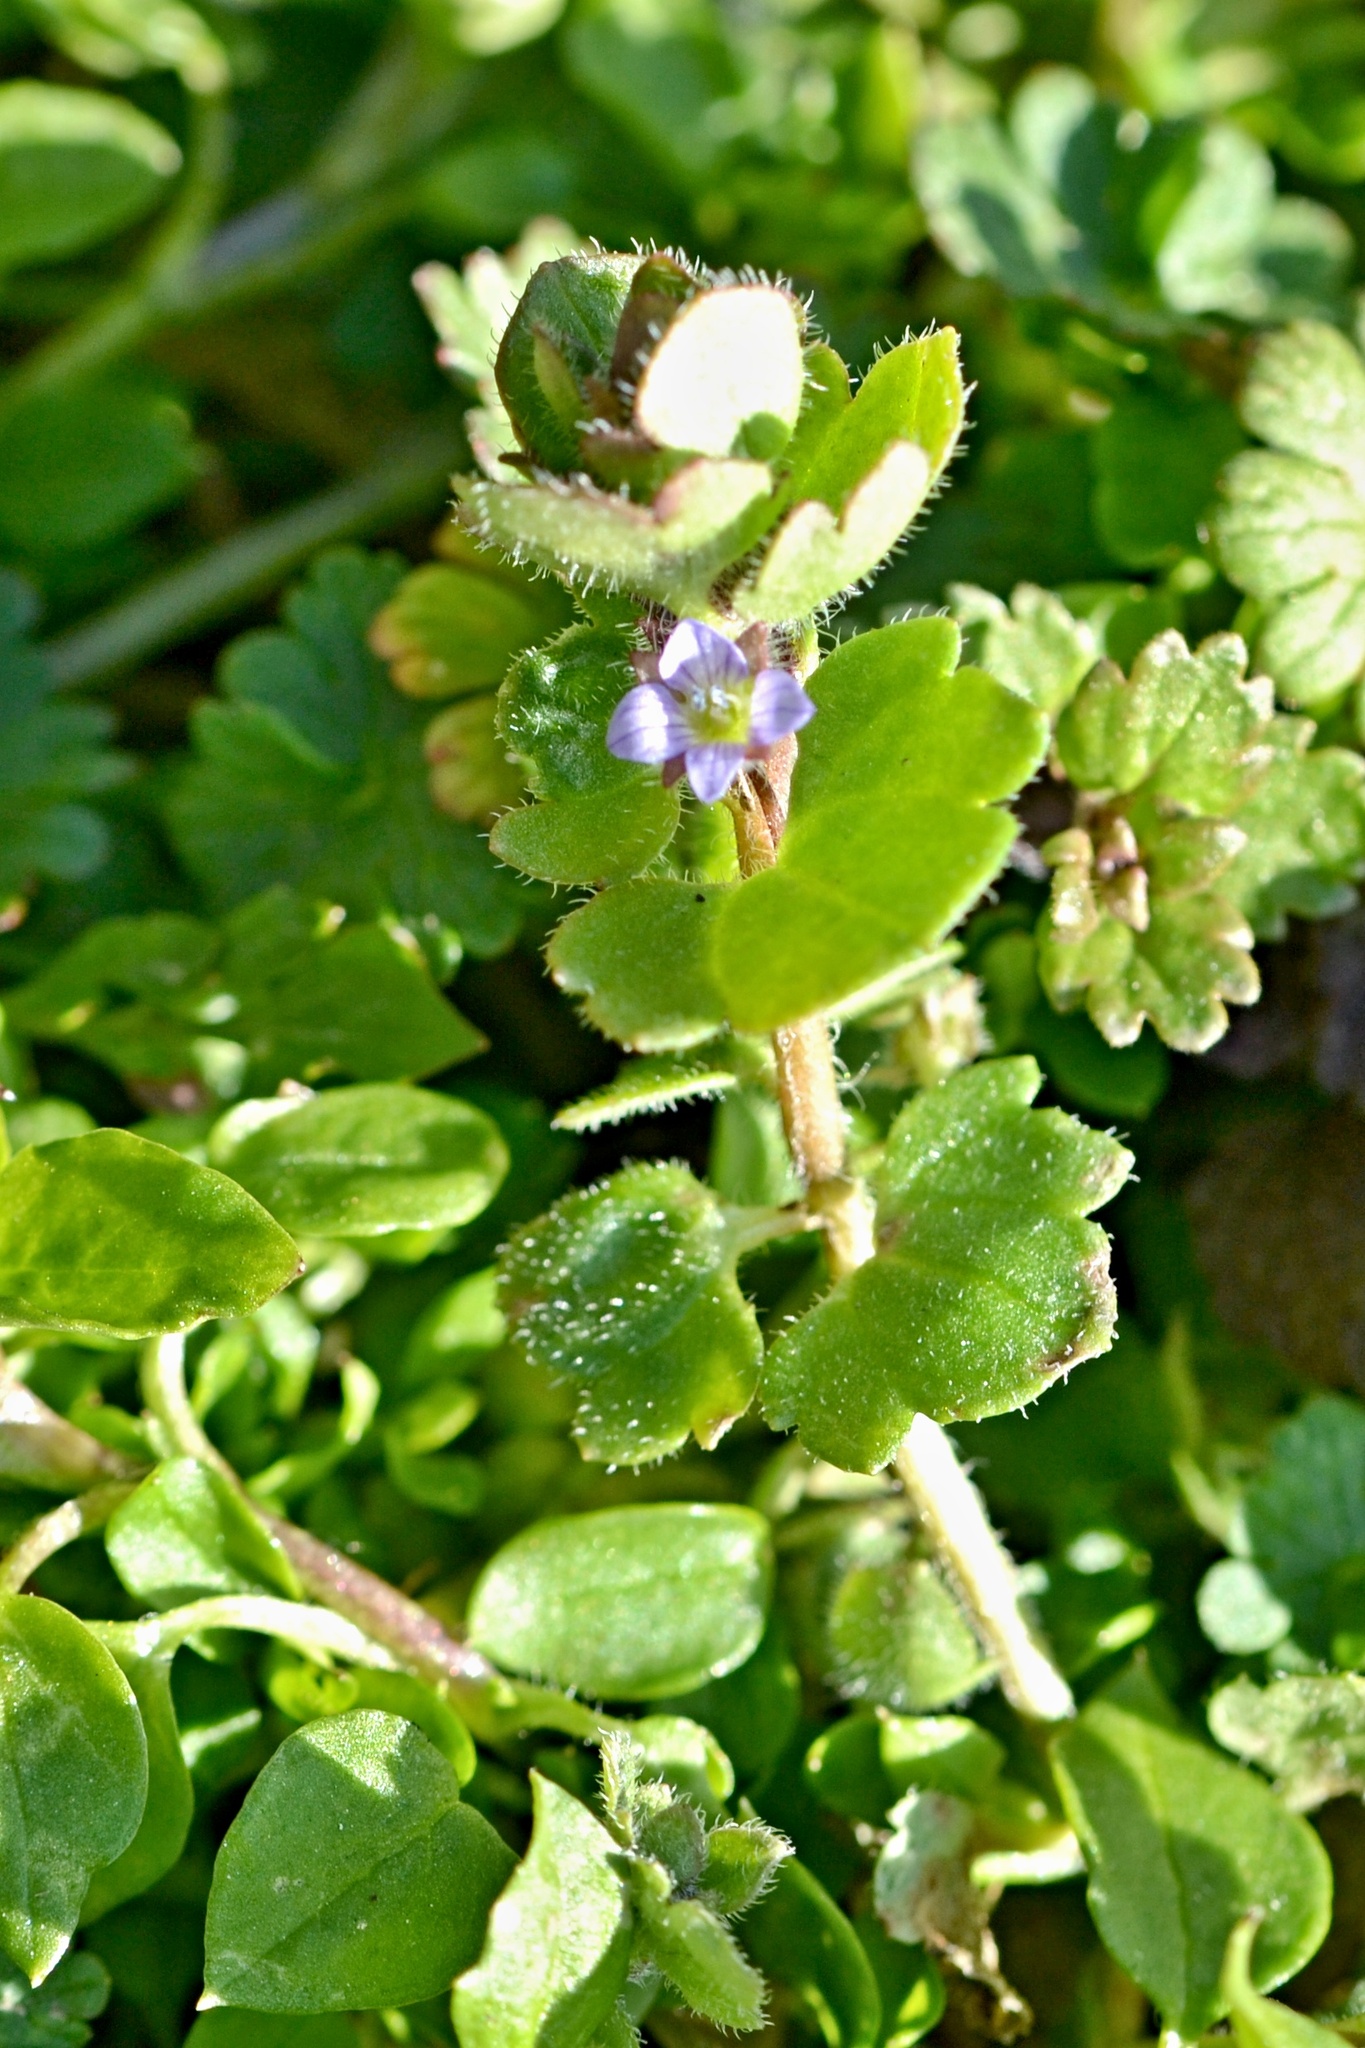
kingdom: Plantae
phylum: Tracheophyta
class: Magnoliopsida
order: Lamiales
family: Plantaginaceae
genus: Veronica
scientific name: Veronica sublobata
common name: False ivy-leaved speedwell
